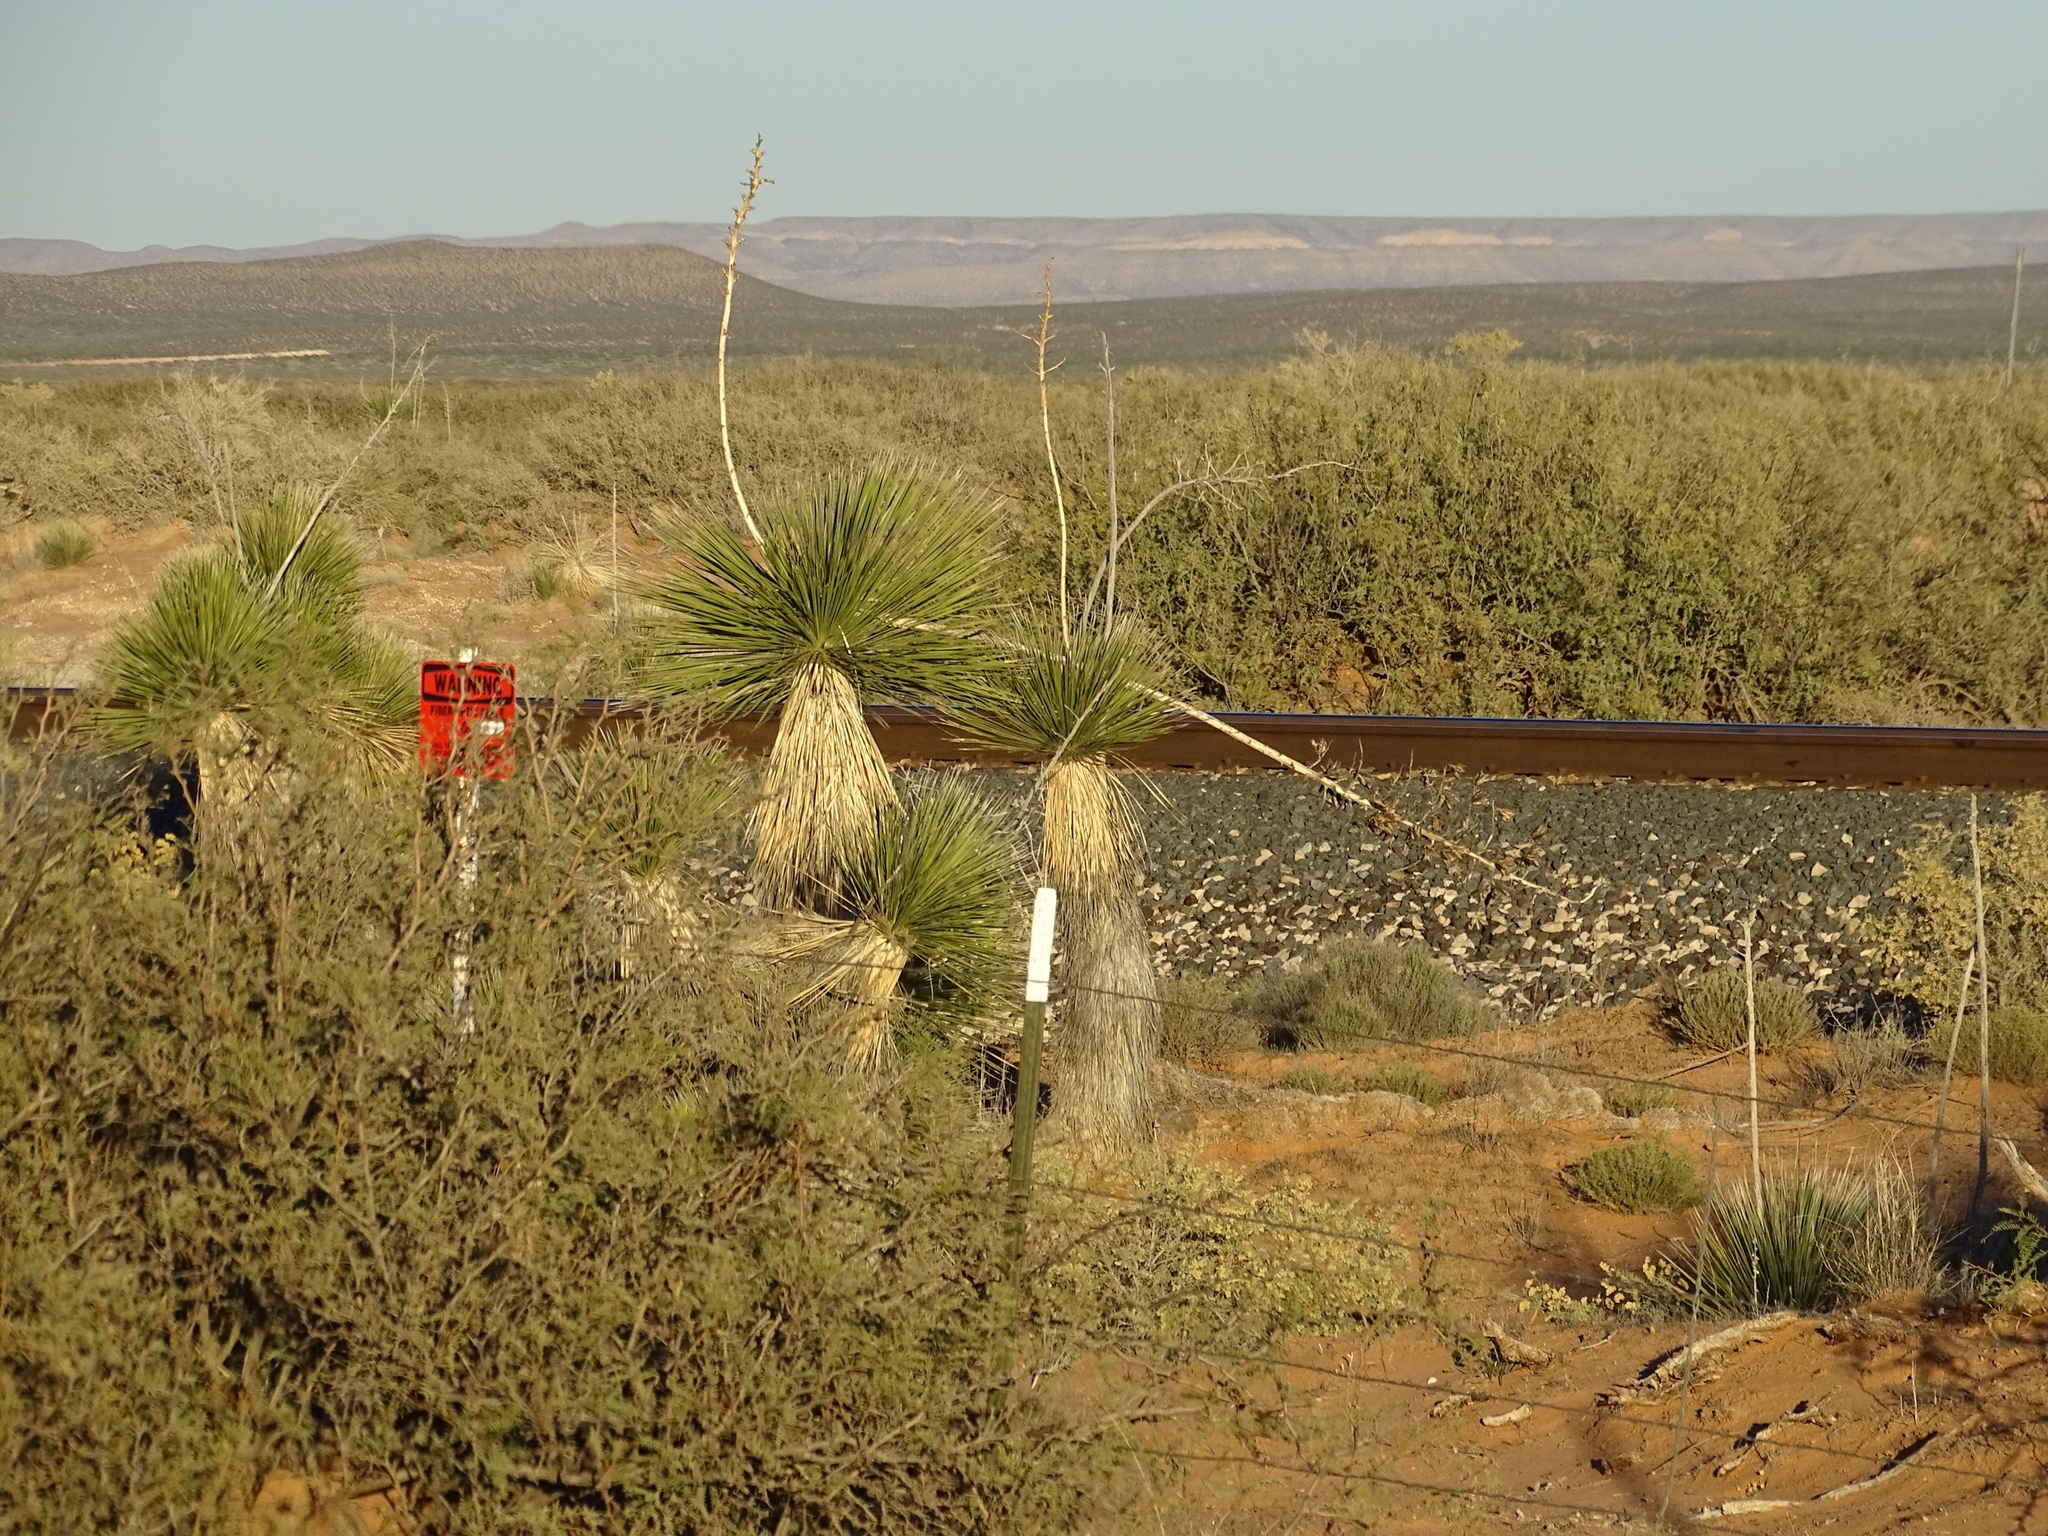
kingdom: Plantae
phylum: Tracheophyta
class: Liliopsida
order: Asparagales
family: Asparagaceae
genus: Yucca
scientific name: Yucca elata
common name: Palmella
